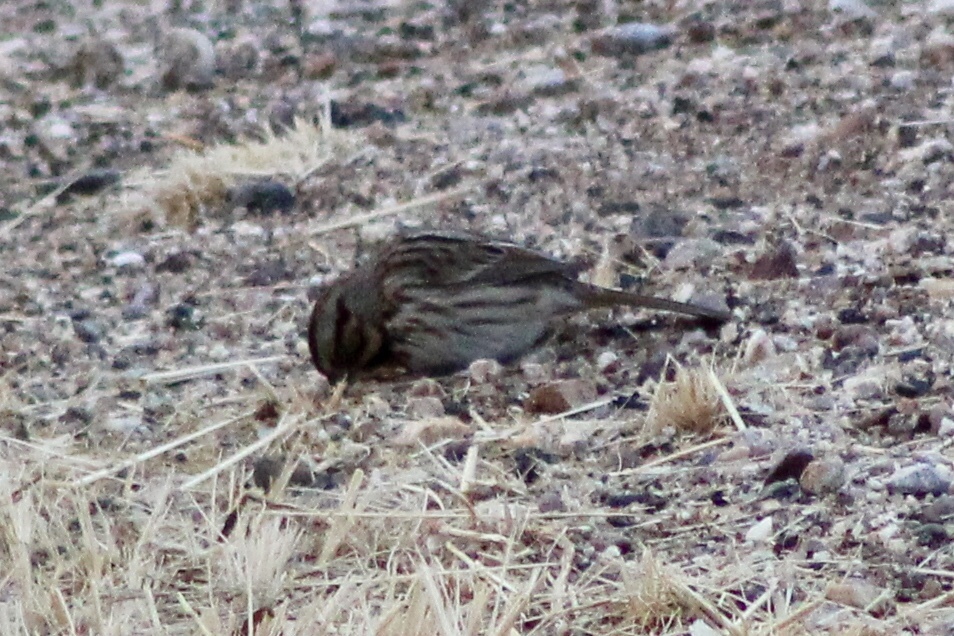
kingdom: Animalia
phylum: Chordata
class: Aves
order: Passeriformes
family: Passerellidae
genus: Melospiza
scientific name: Melospiza melodia
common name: Song sparrow
